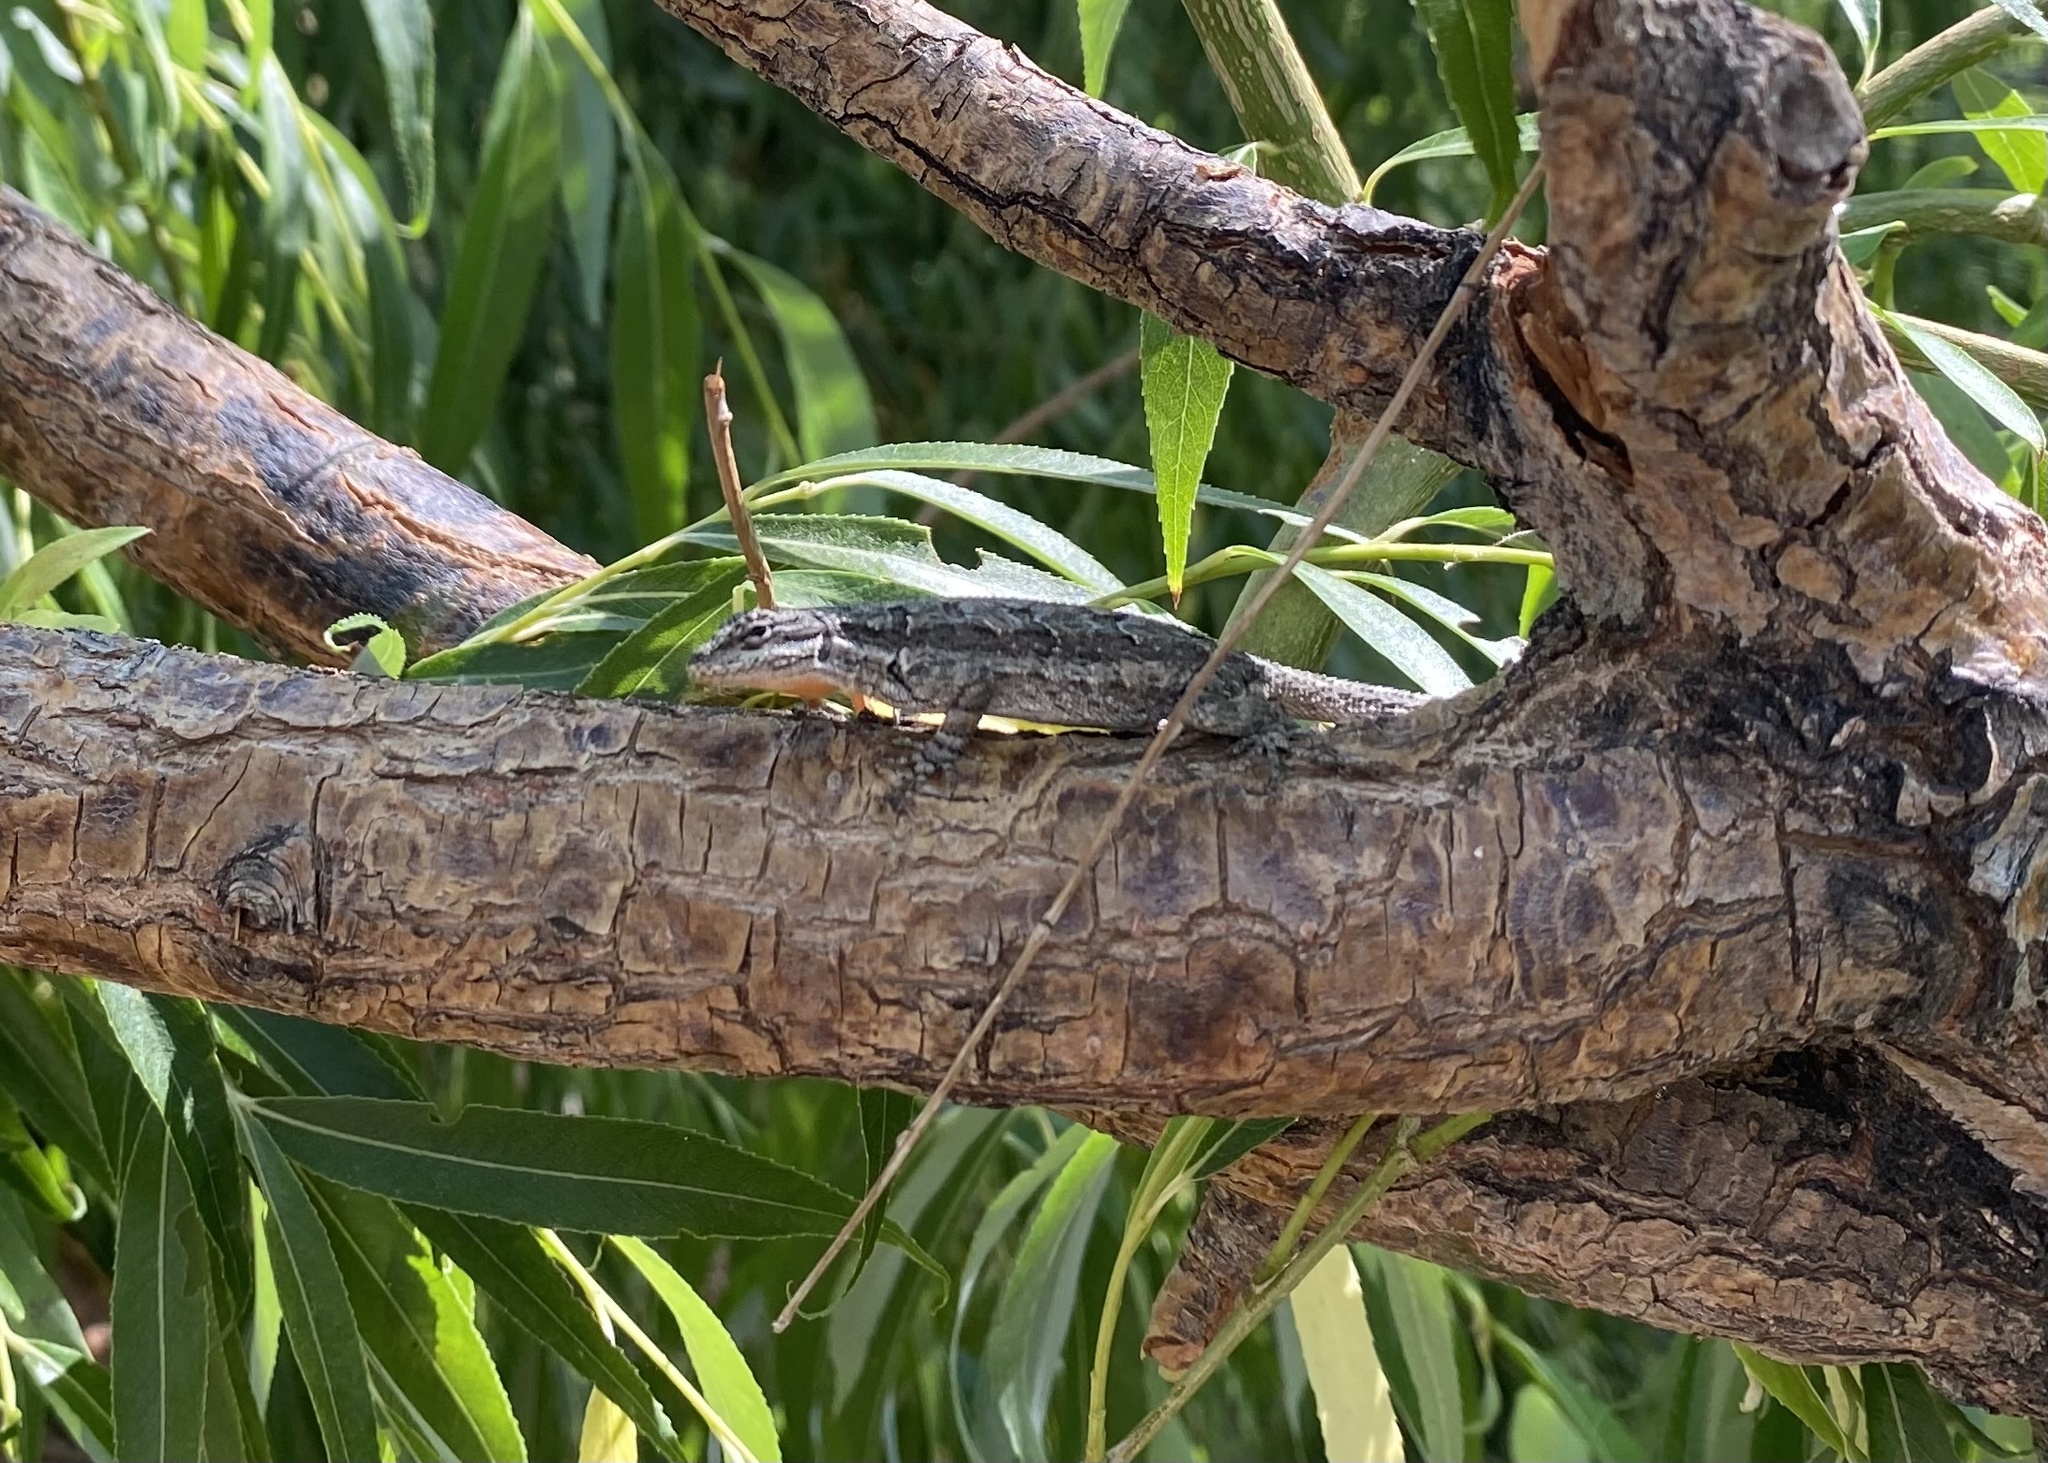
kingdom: Animalia
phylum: Chordata
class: Squamata
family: Phrynosomatidae
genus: Urosaurus
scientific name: Urosaurus ornatus
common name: Ornate tree lizard
